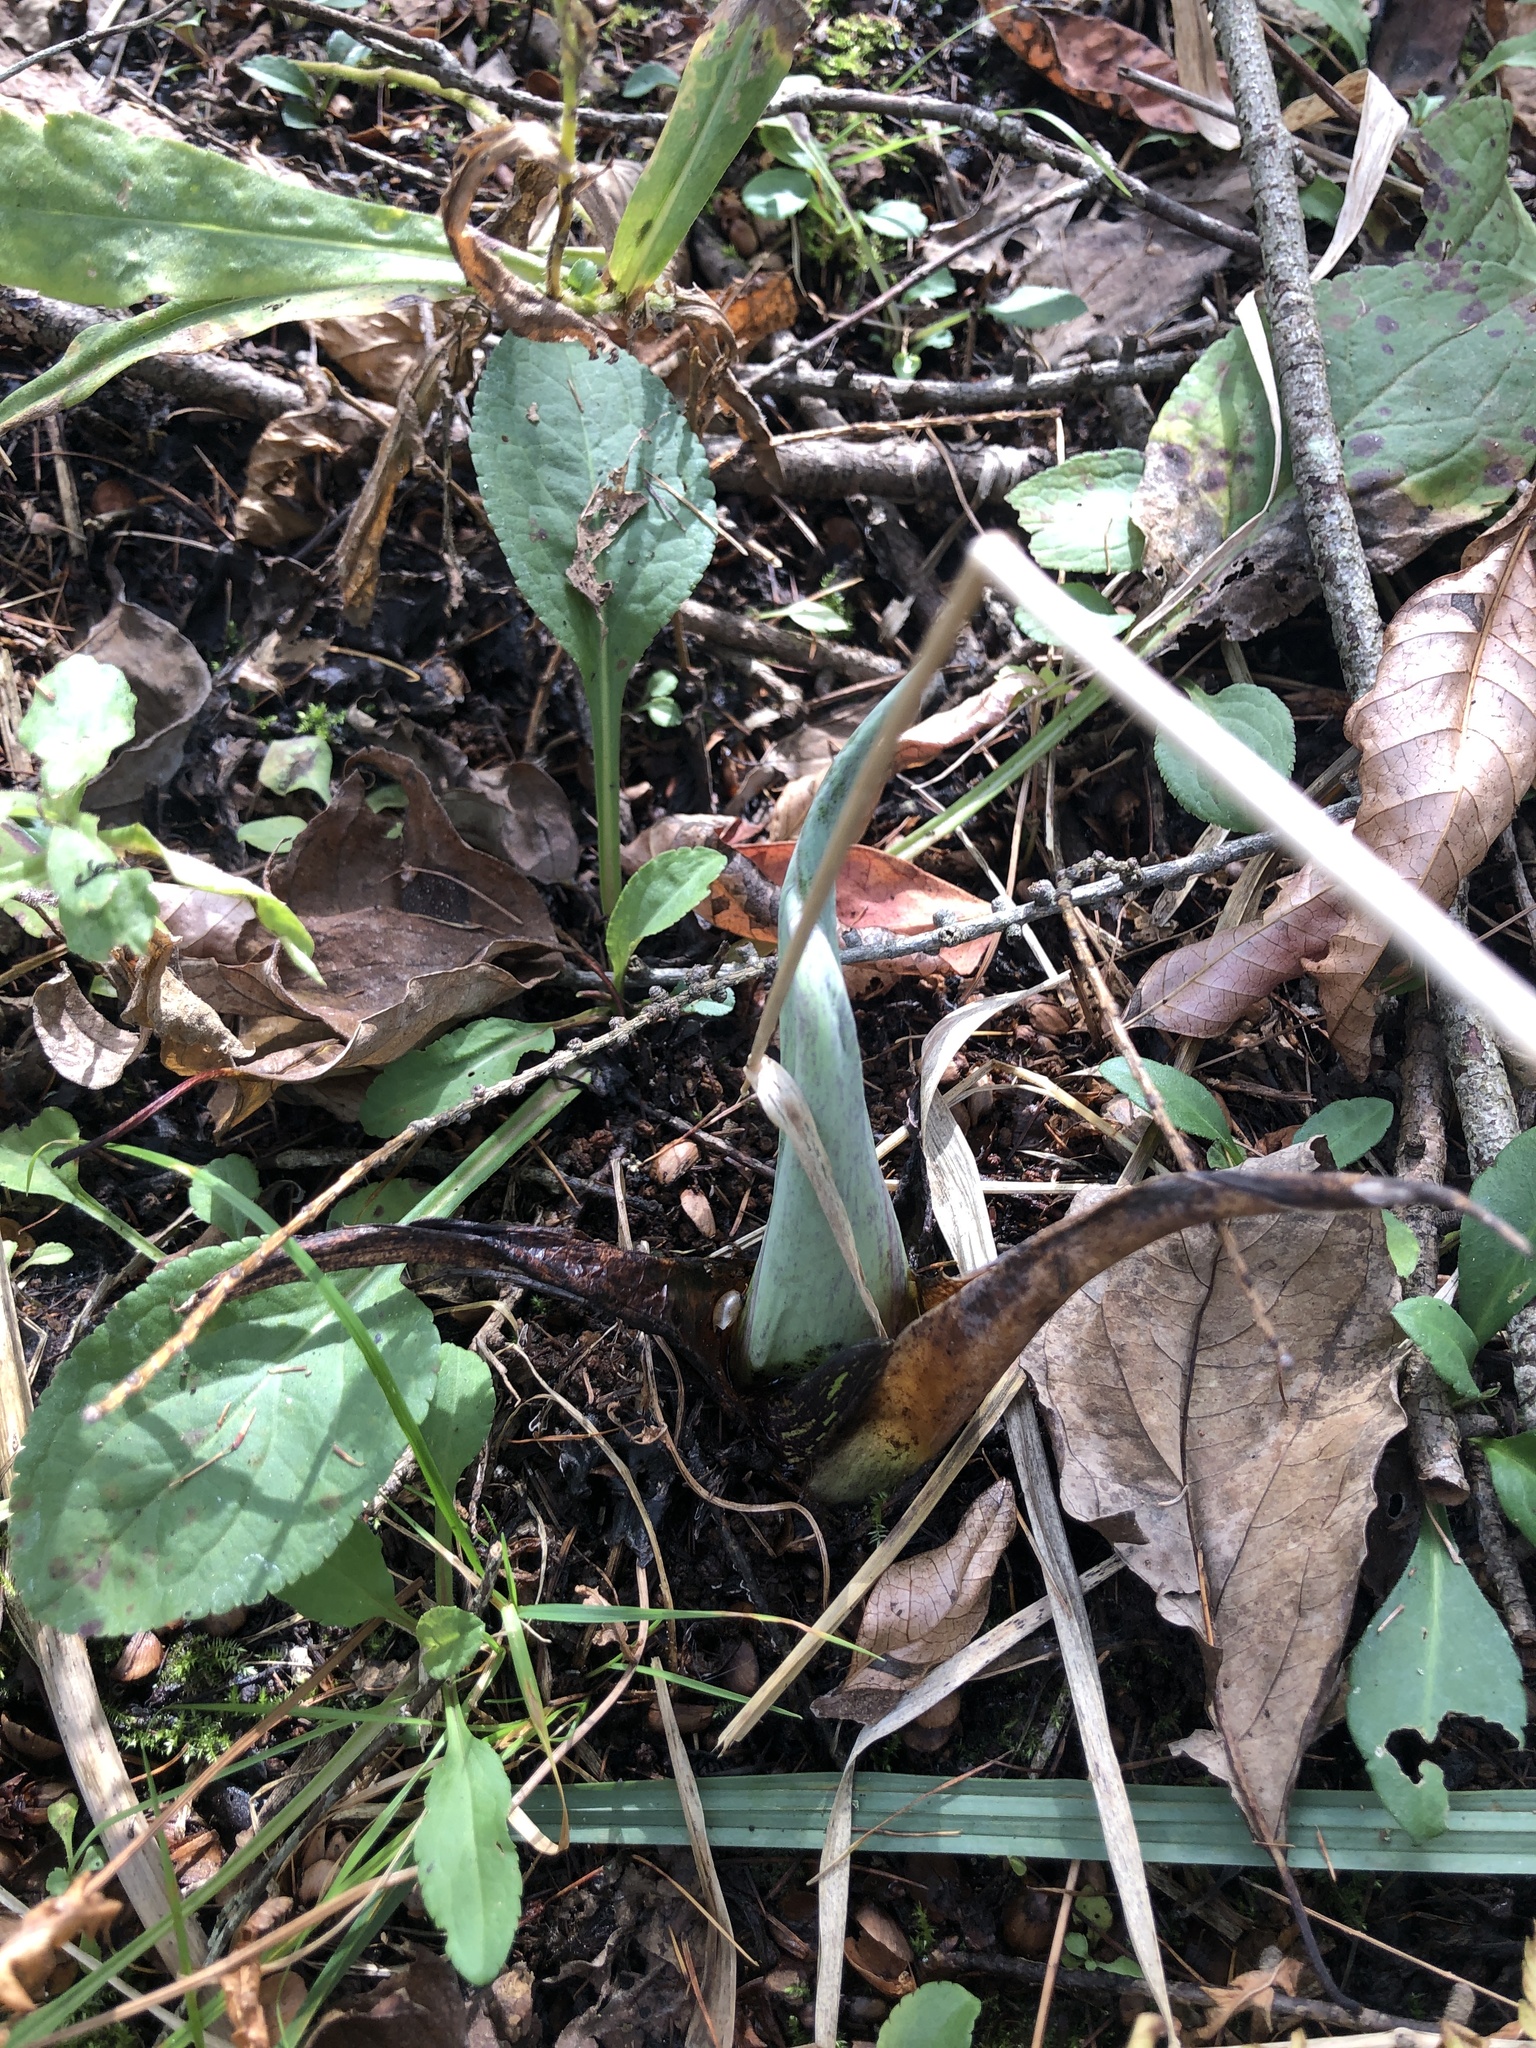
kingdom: Plantae
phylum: Tracheophyta
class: Liliopsida
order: Alismatales
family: Araceae
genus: Symplocarpus
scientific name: Symplocarpus foetidus
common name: Eastern skunk cabbage
